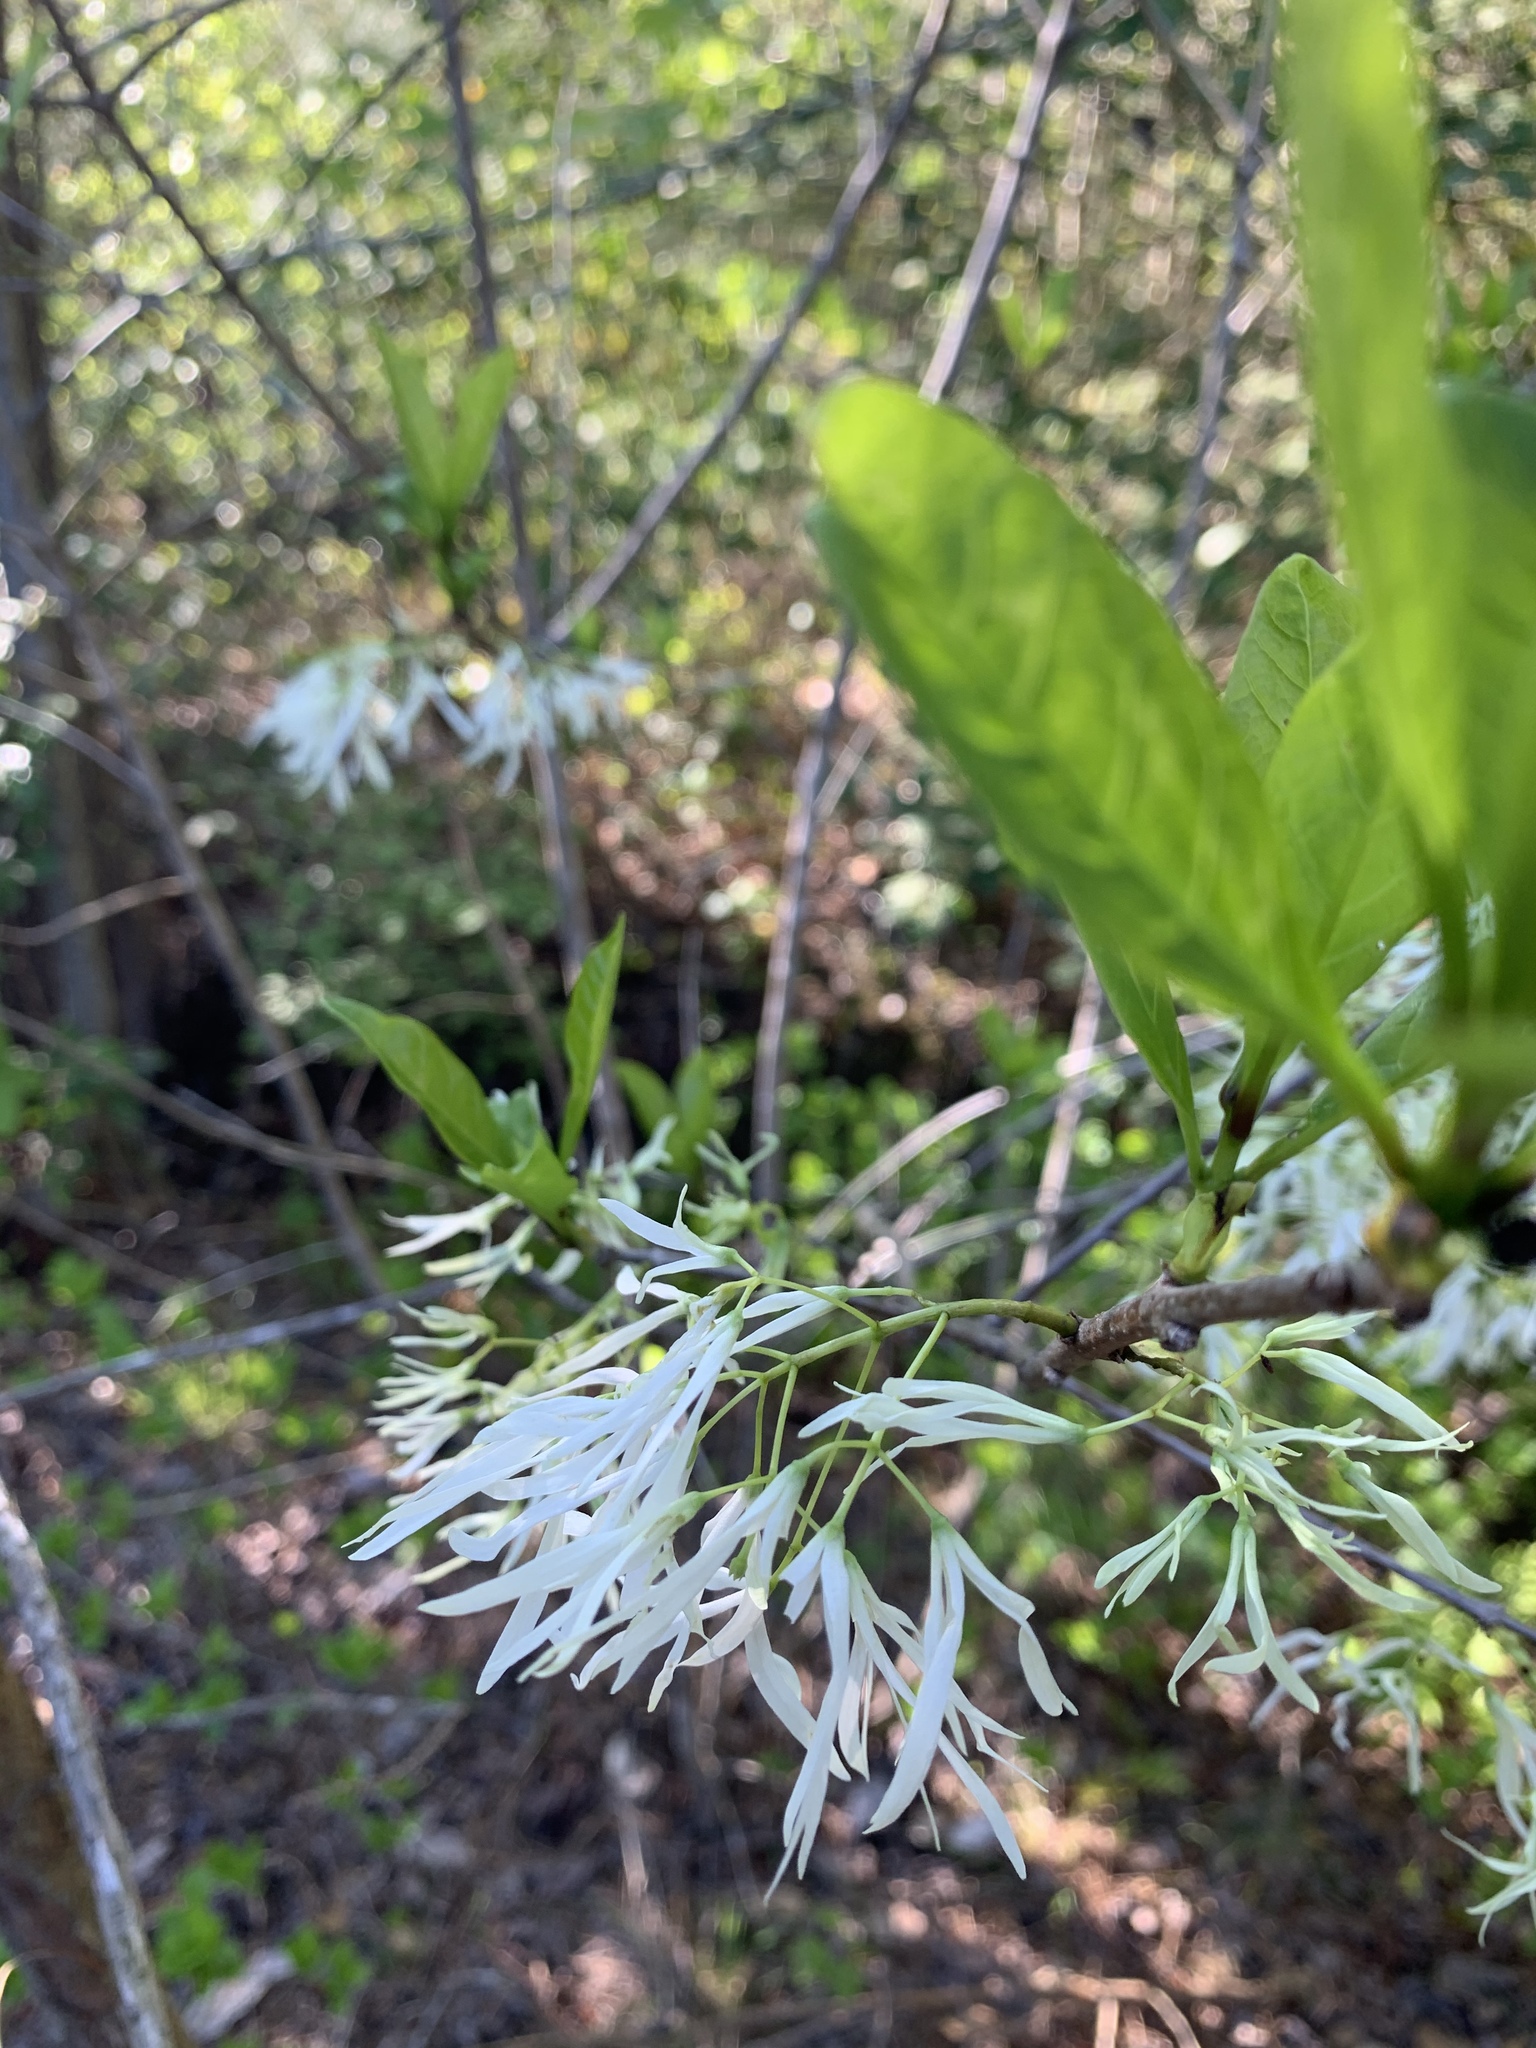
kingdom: Plantae
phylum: Tracheophyta
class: Magnoliopsida
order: Lamiales
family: Oleaceae
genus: Chionanthus
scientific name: Chionanthus virginicus
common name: American fringetree
